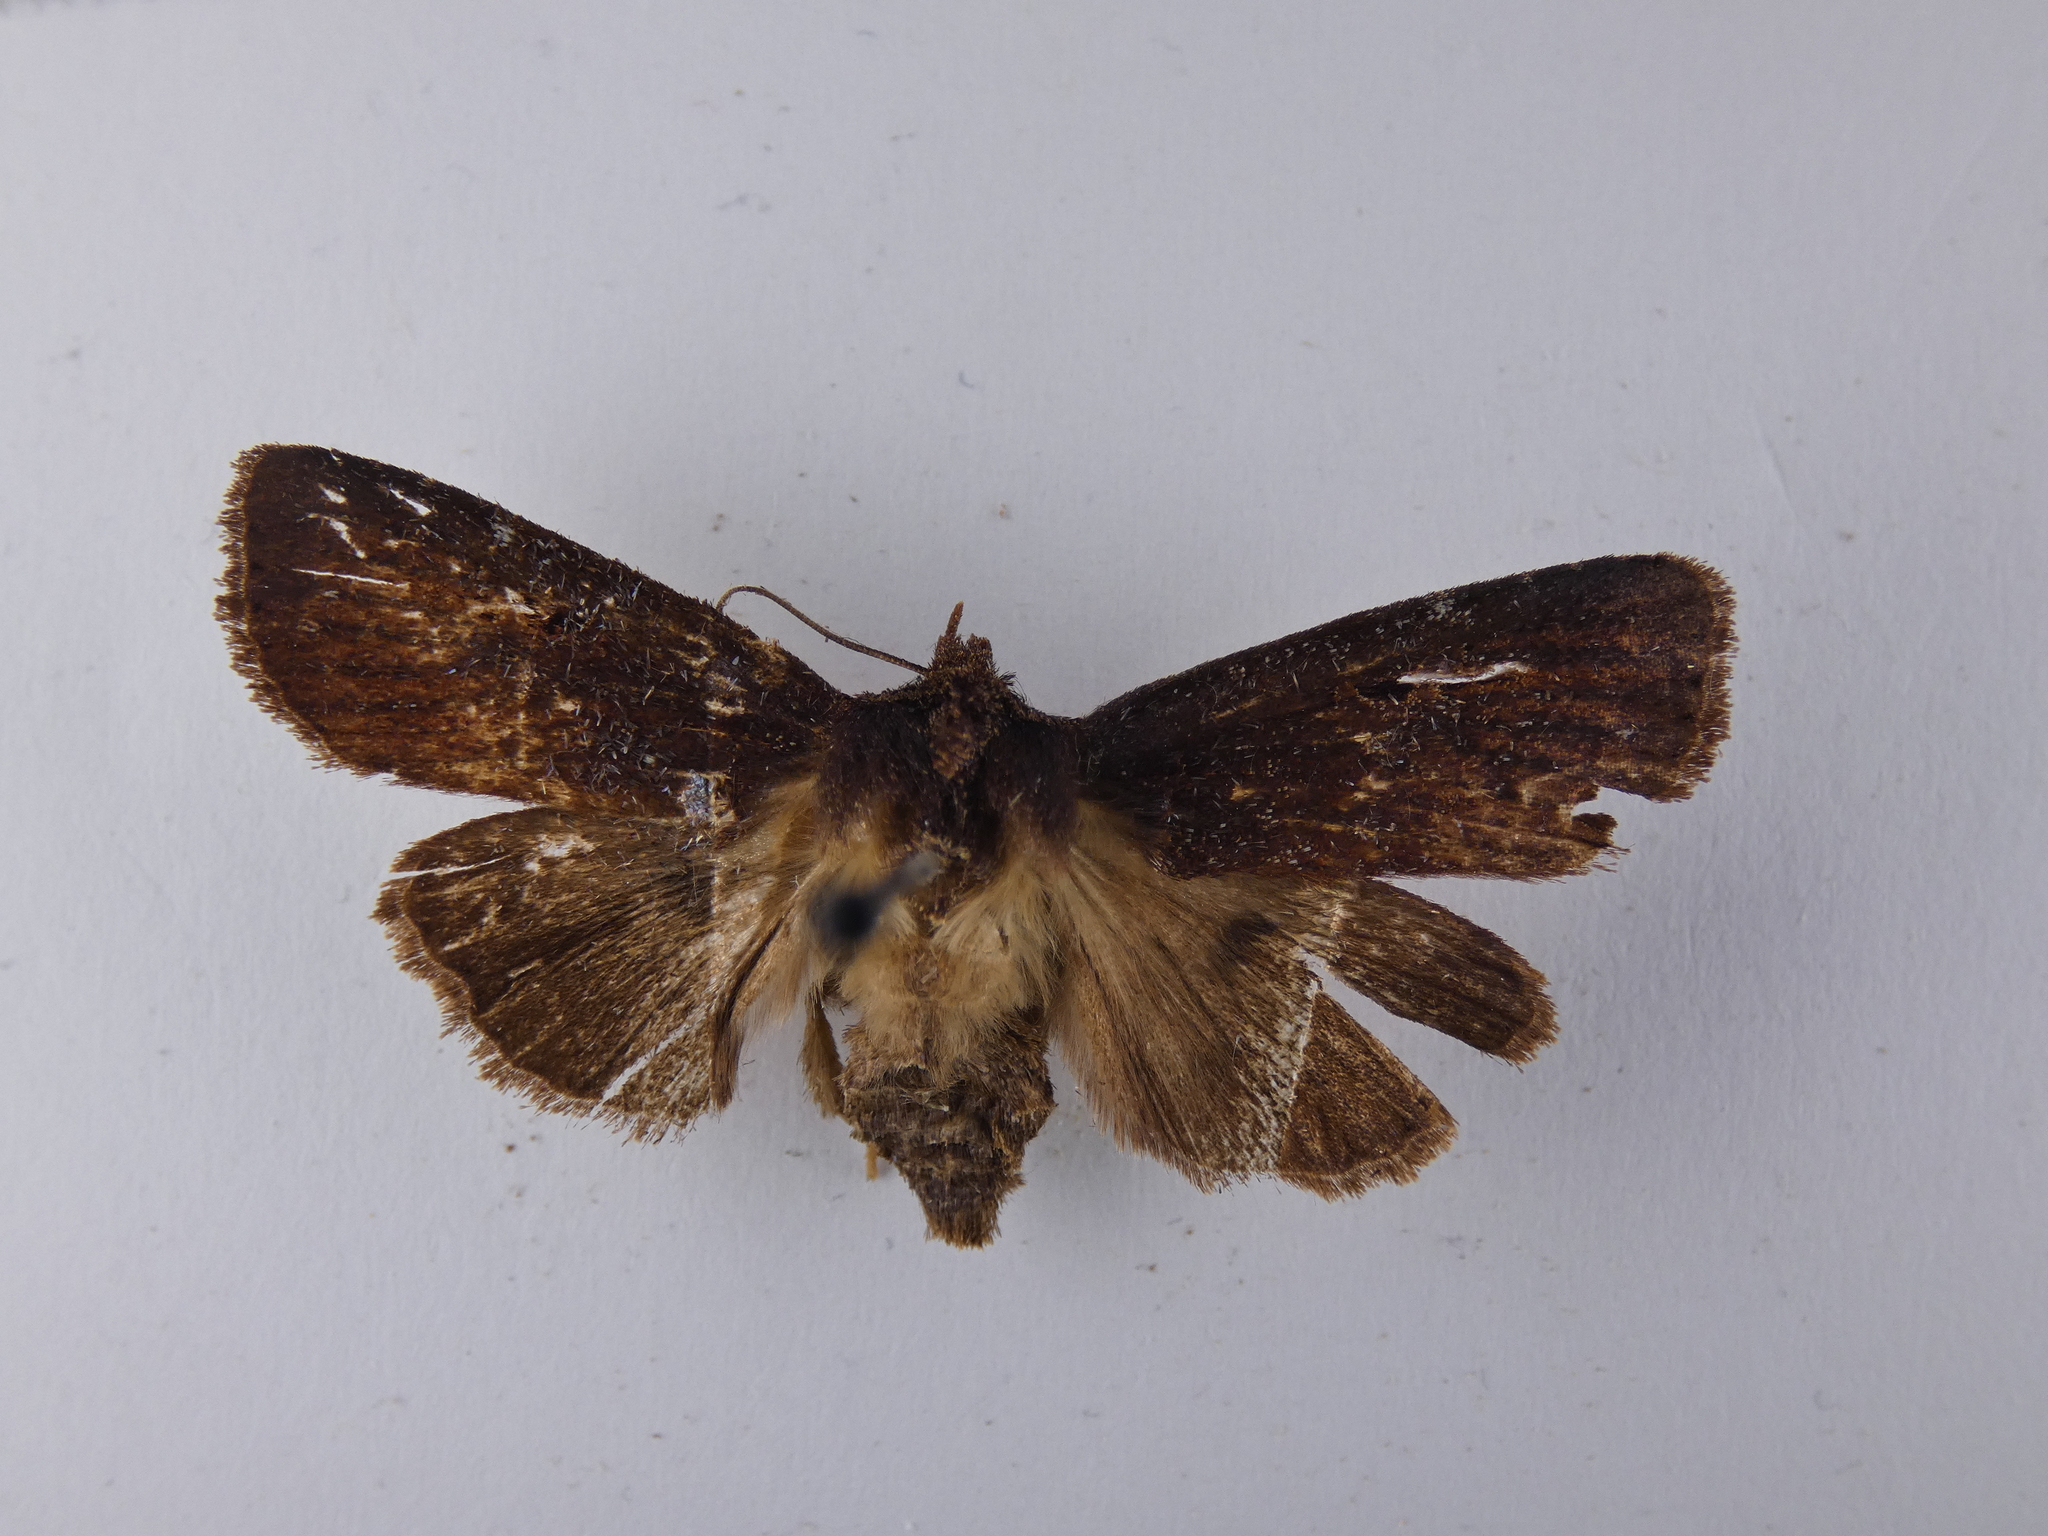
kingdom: Animalia
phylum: Arthropoda
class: Insecta
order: Lepidoptera
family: Noctuidae
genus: Austramathes
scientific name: Austramathes purpurea
